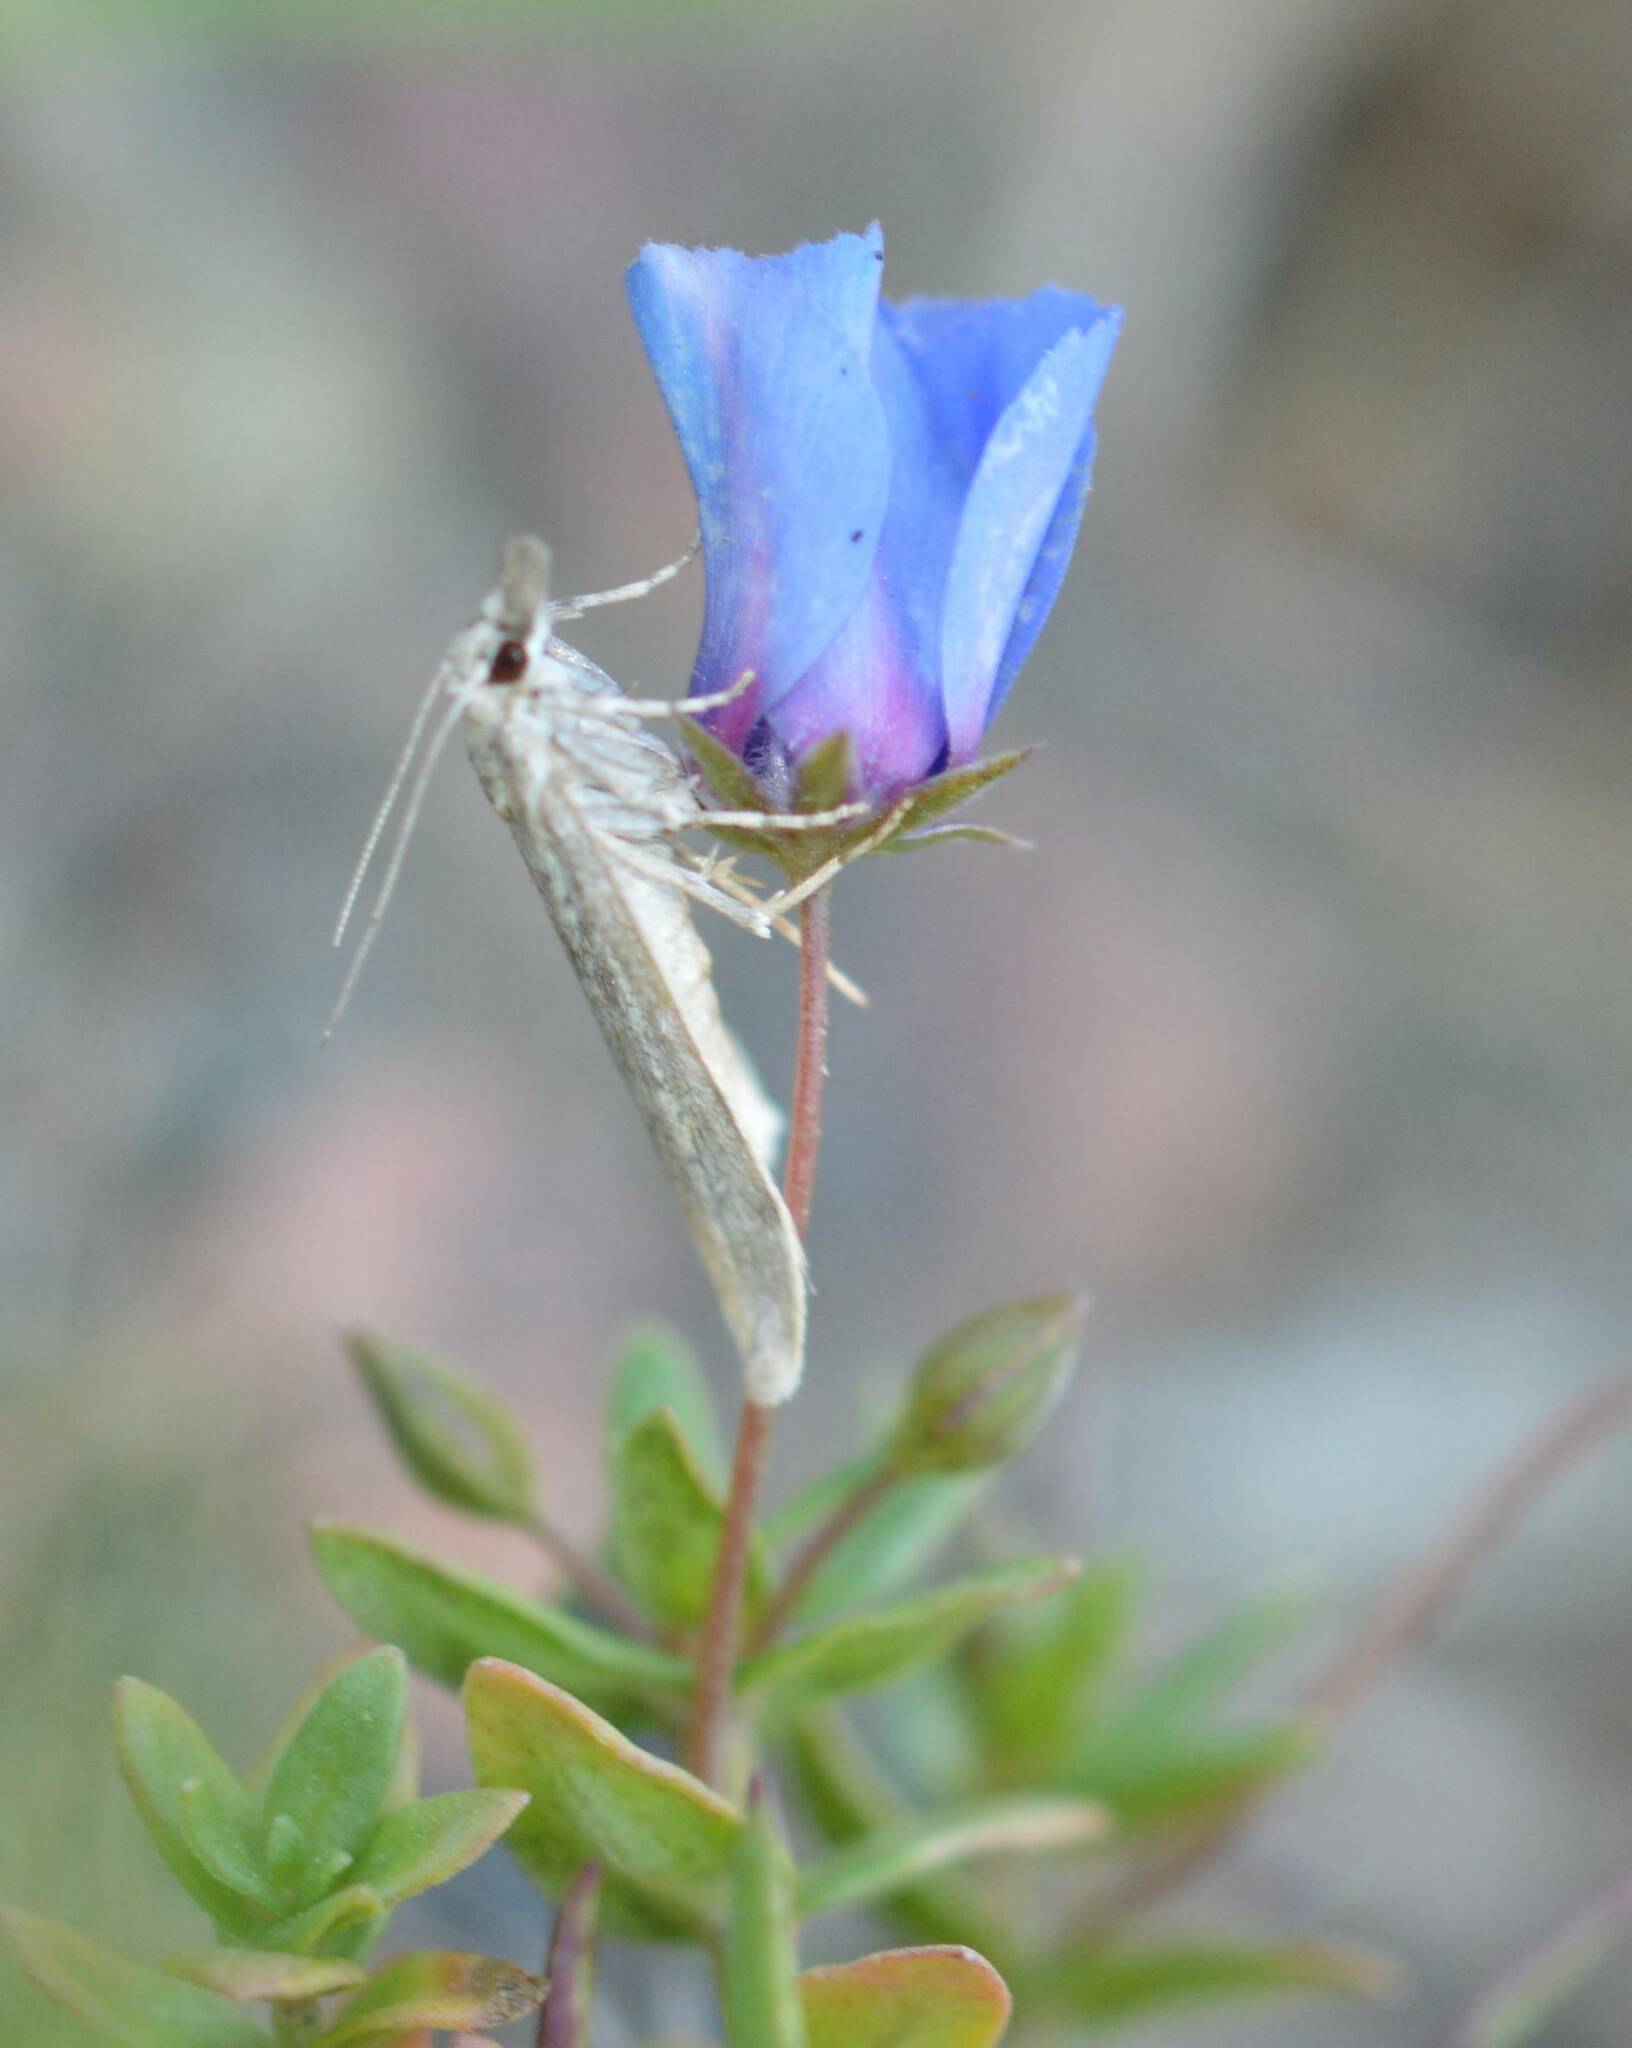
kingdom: Animalia
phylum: Arthropoda
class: Insecta
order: Lepidoptera
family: Crambidae
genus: Nomophila
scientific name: Nomophila noctuella
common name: Rush veneer
